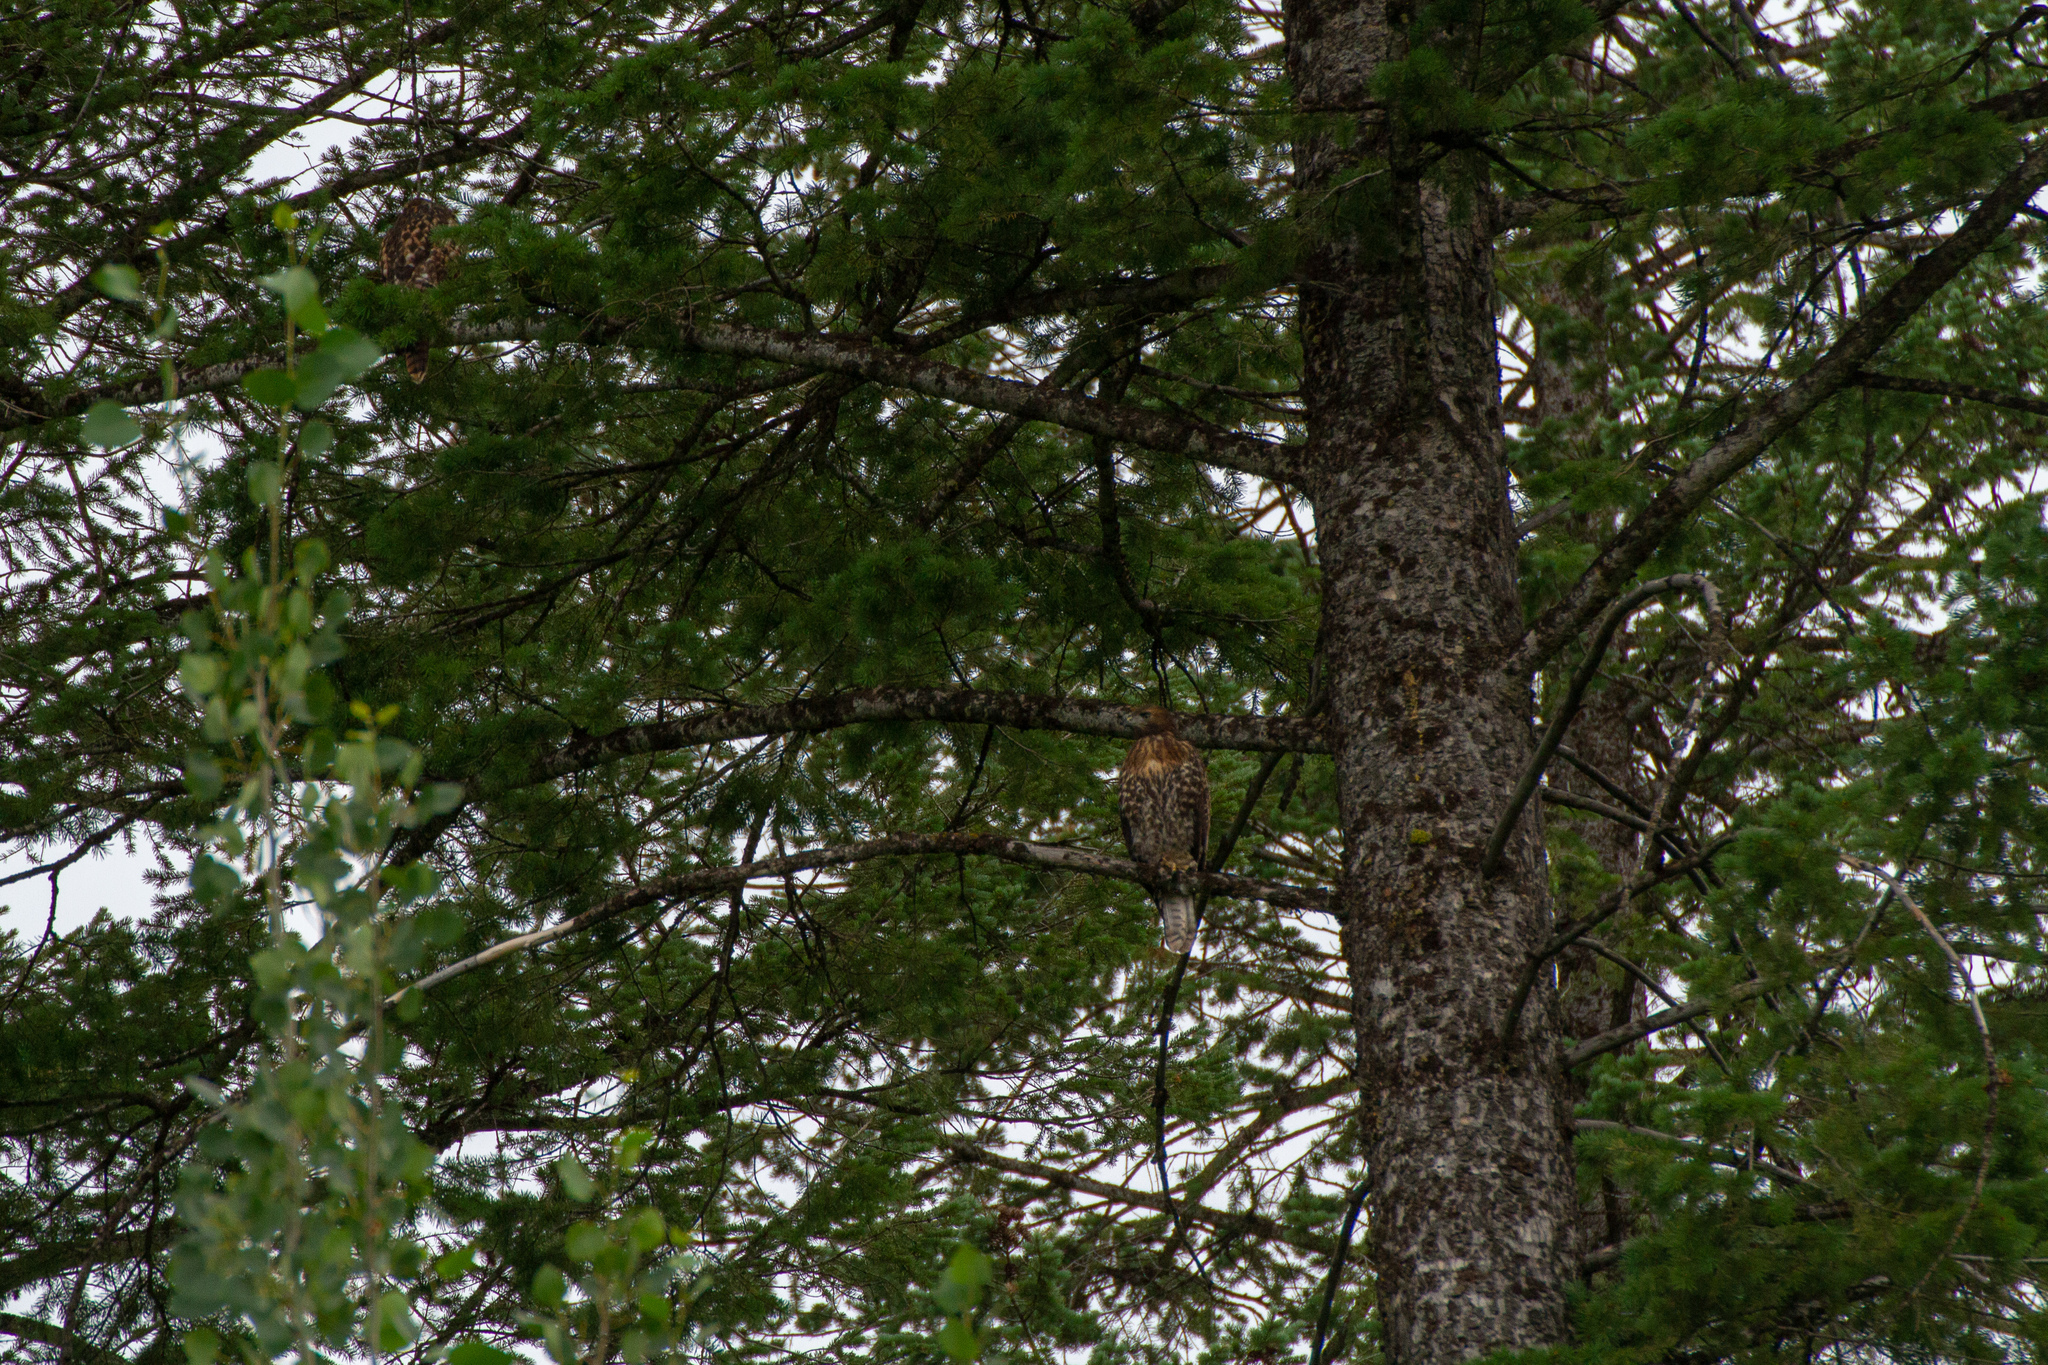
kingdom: Animalia
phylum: Chordata
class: Aves
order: Accipitriformes
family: Accipitridae
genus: Buteo
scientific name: Buteo jamaicensis
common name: Red-tailed hawk
